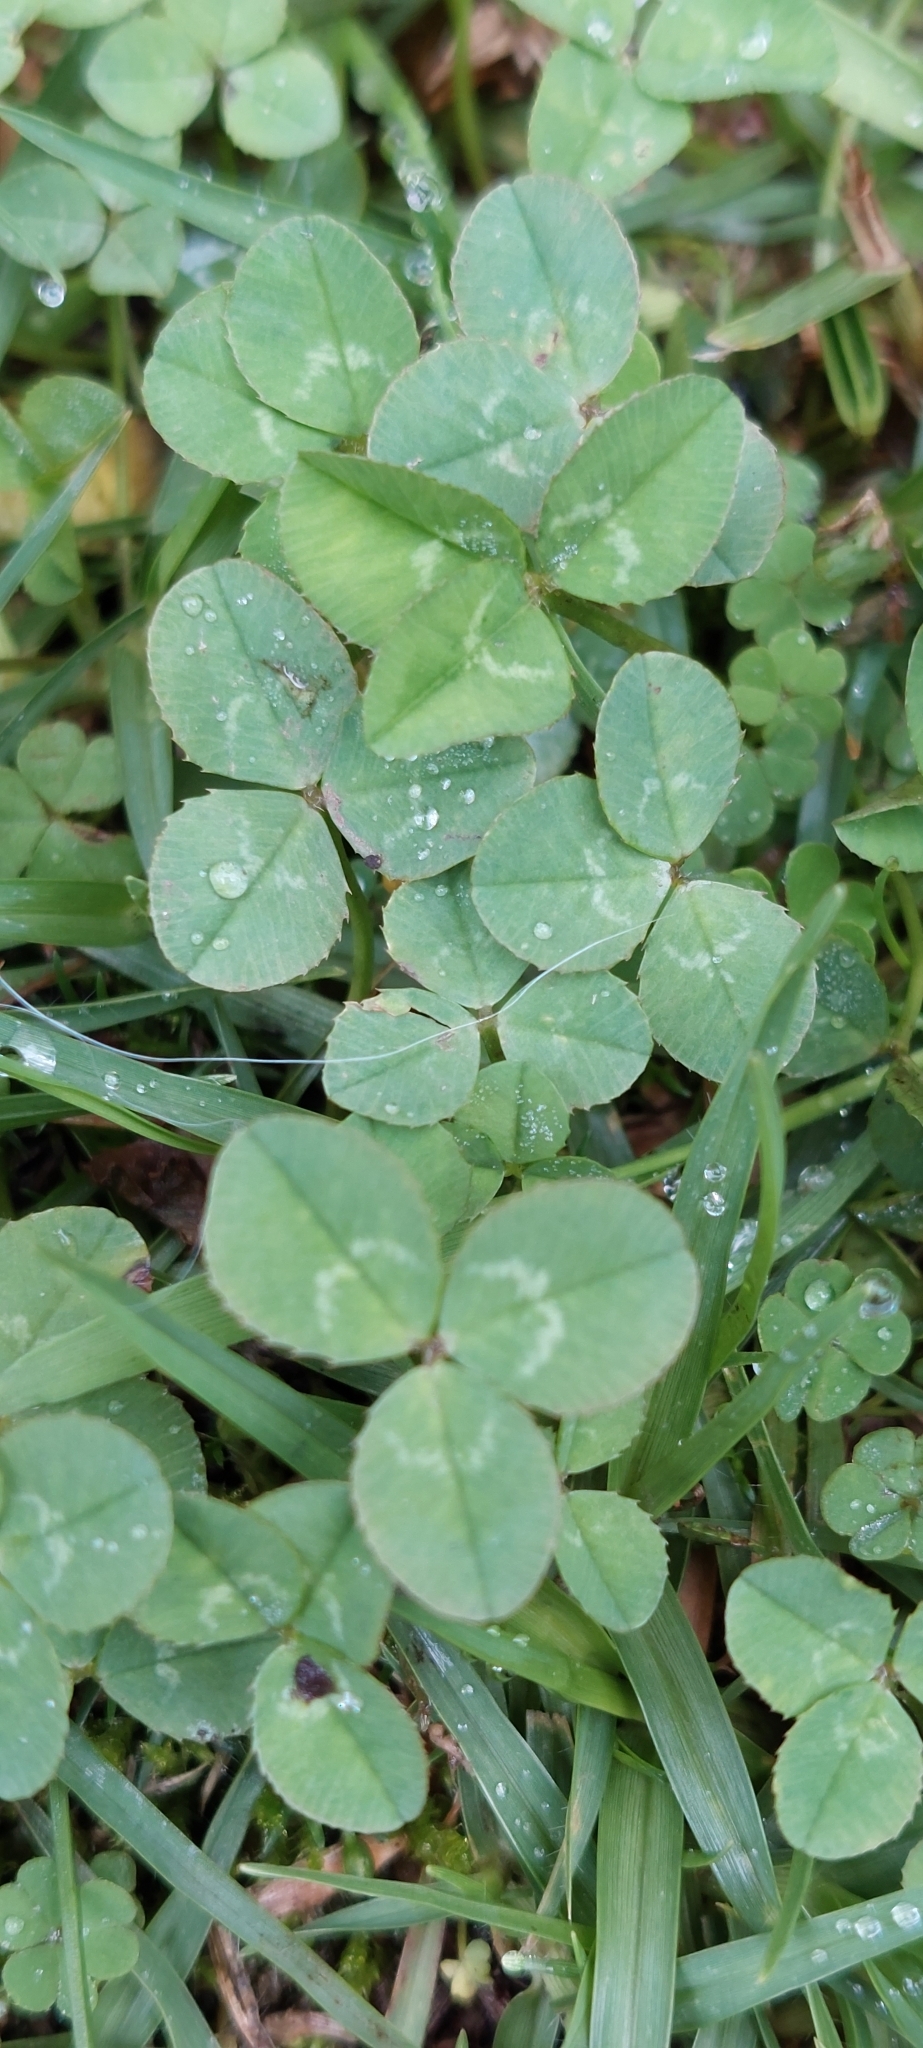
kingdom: Plantae
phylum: Tracheophyta
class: Magnoliopsida
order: Fabales
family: Fabaceae
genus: Trifolium
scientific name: Trifolium repens
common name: White clover
